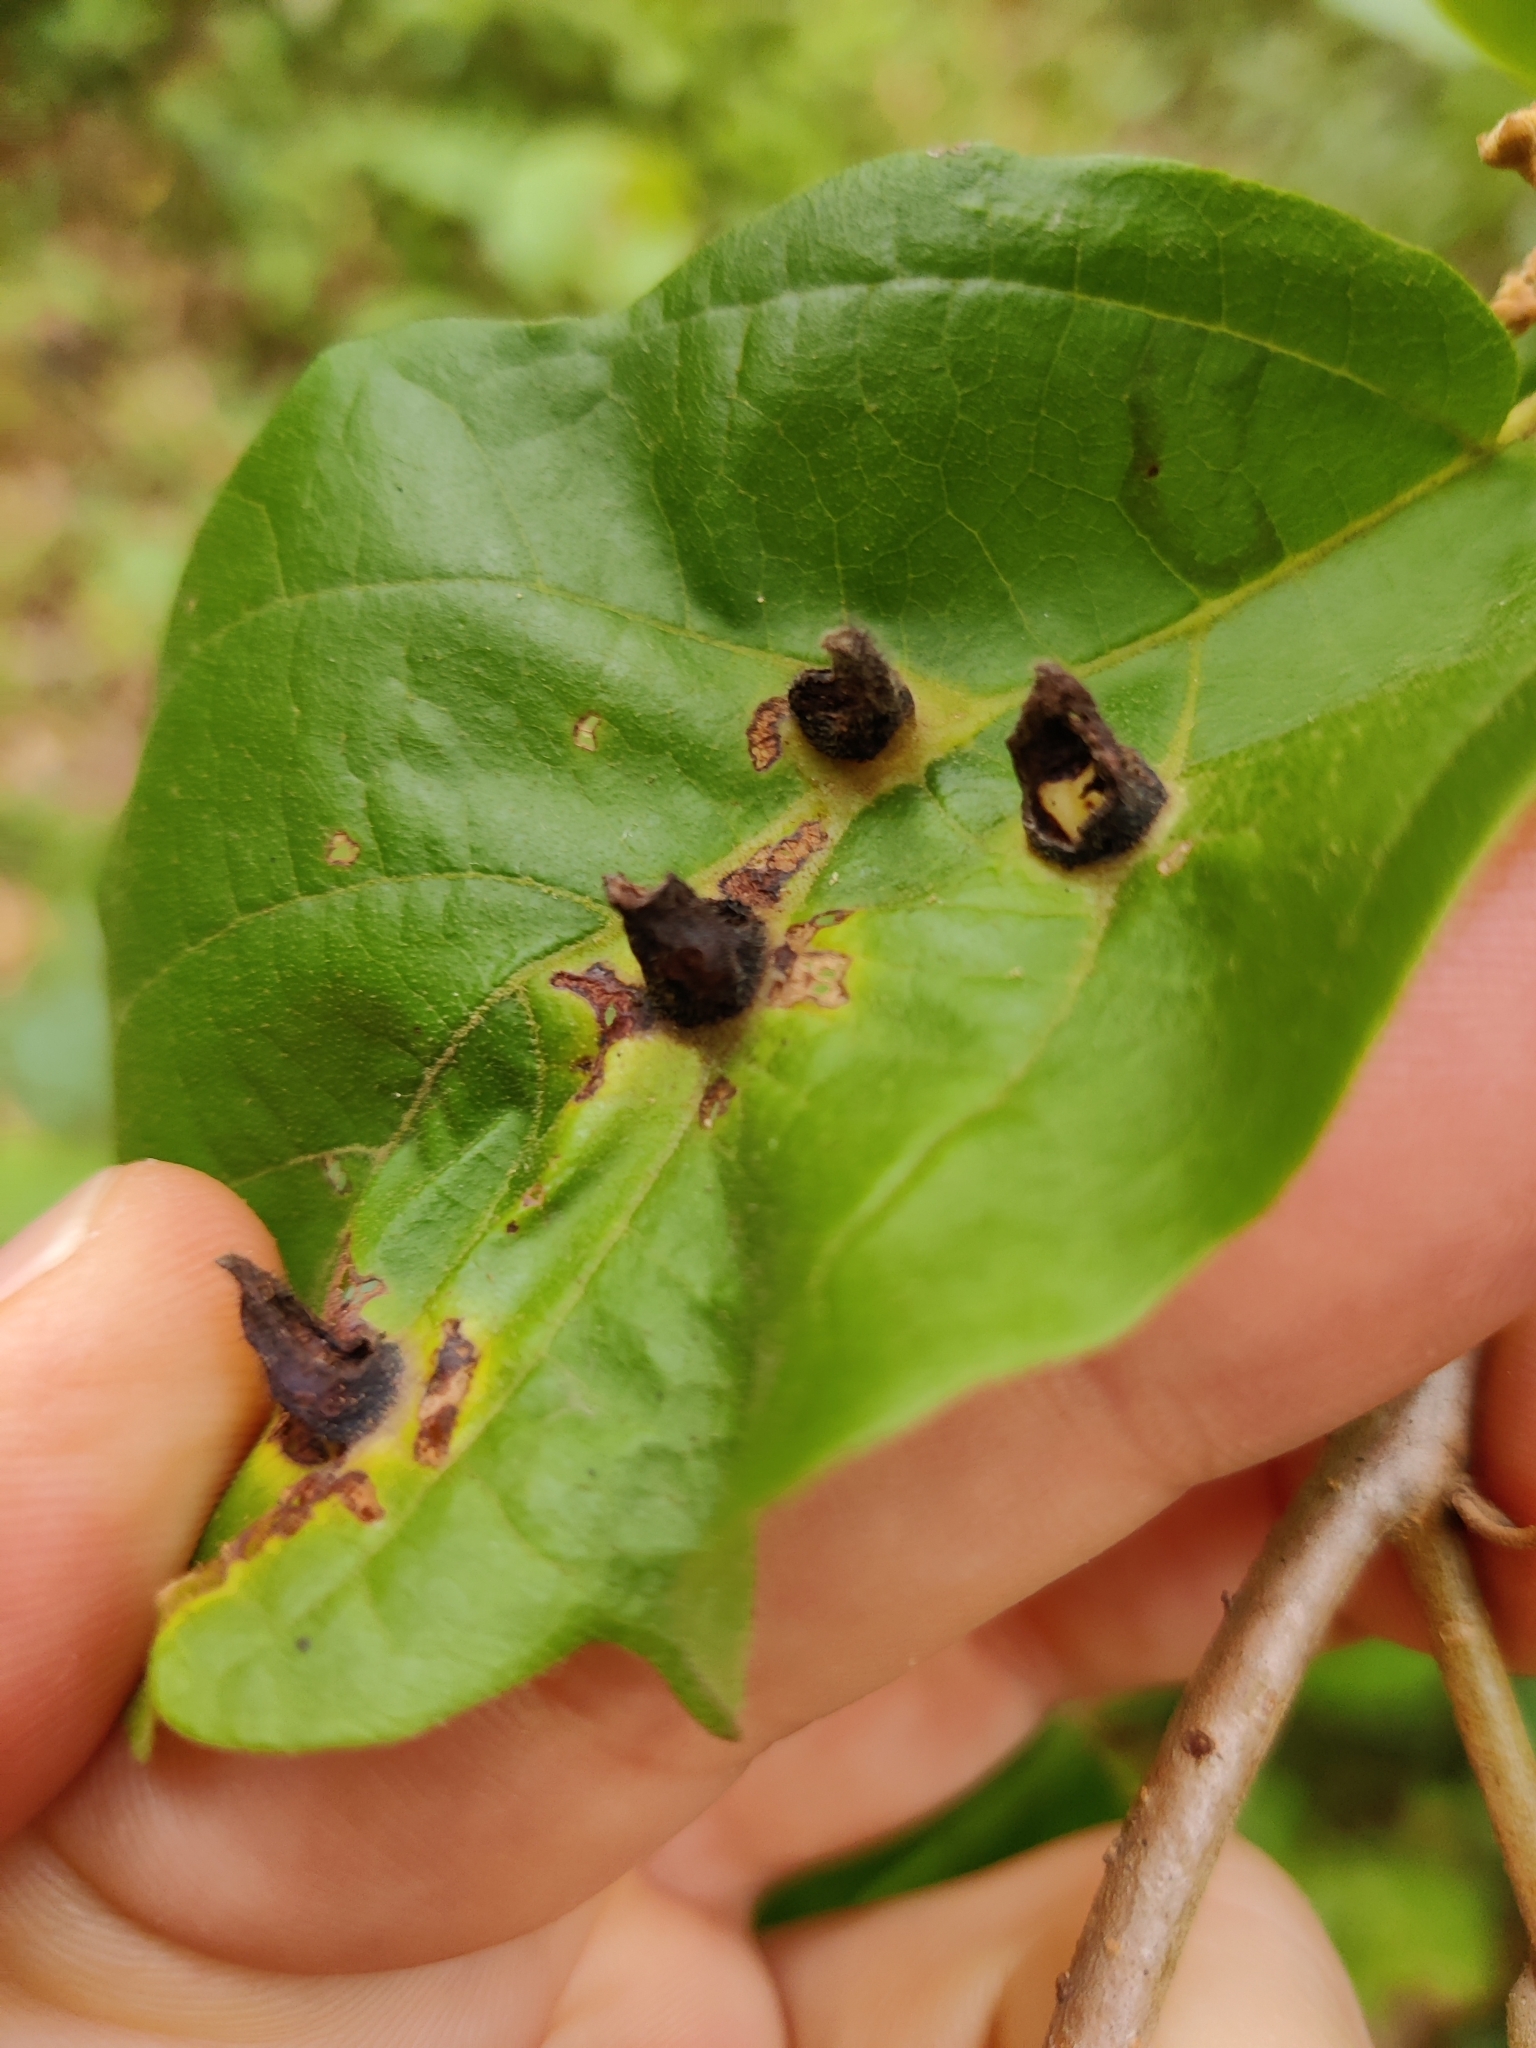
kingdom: Animalia
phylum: Arthropoda
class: Insecta
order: Hemiptera
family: Aphididae
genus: Hormaphis
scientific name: Hormaphis hamamelidis
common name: Witch-hazel cone gall aphid
